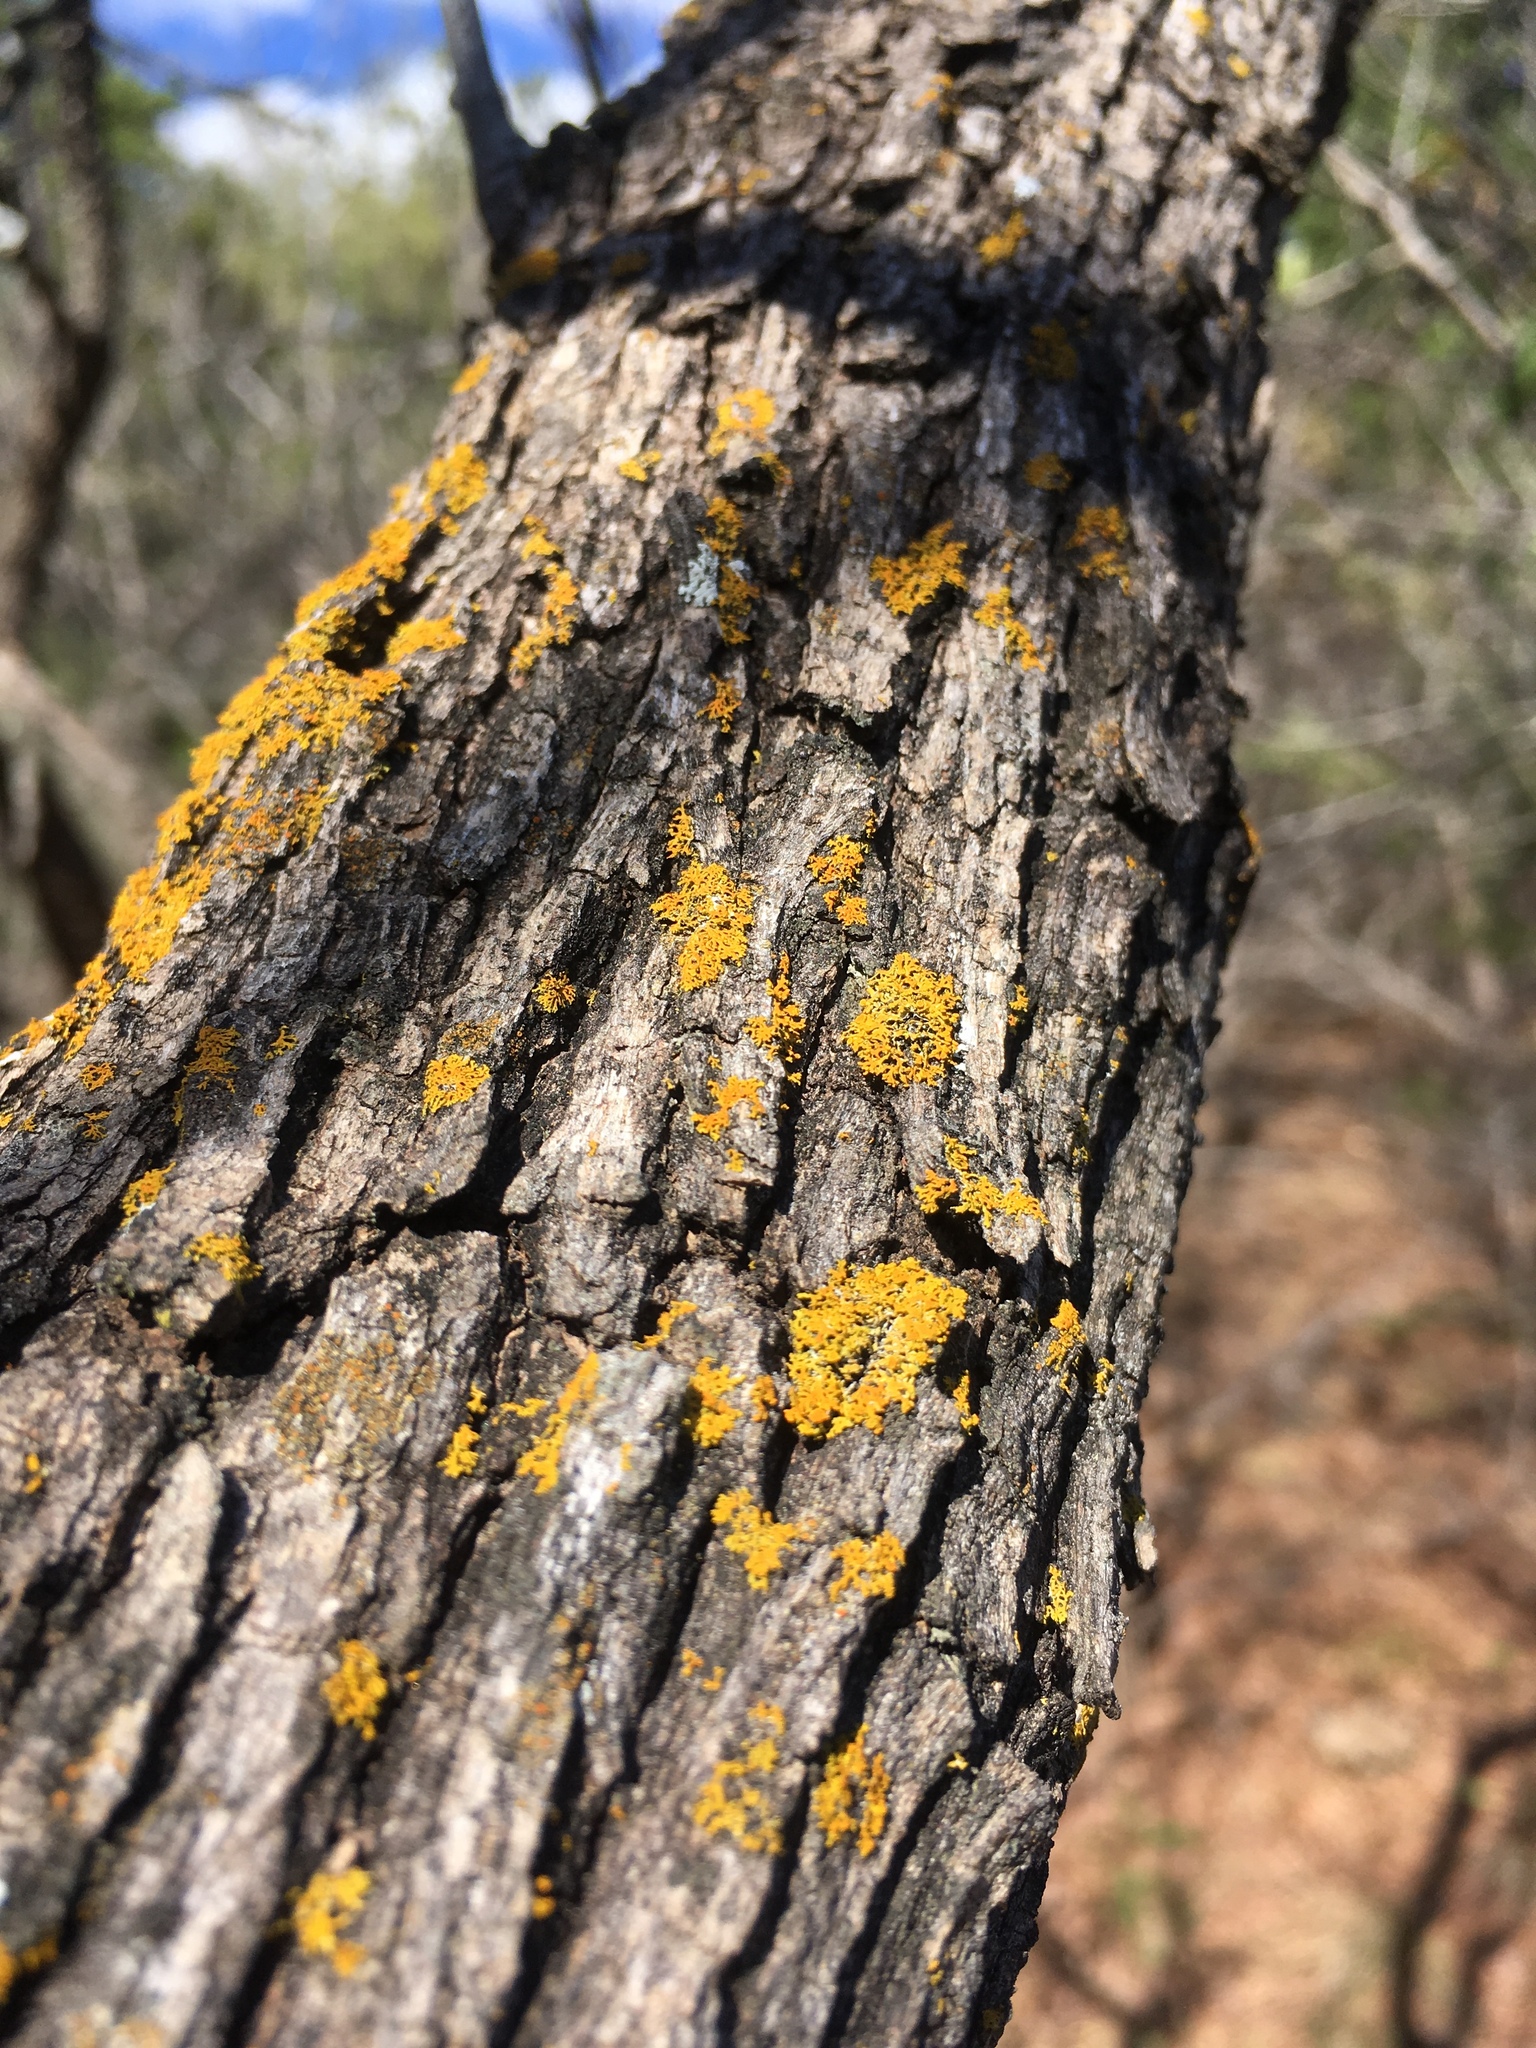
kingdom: Fungi
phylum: Ascomycota
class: Candelariomycetes
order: Candelariales
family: Candelariaceae
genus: Candelaria
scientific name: Candelaria concolor
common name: Candleflame lichen
